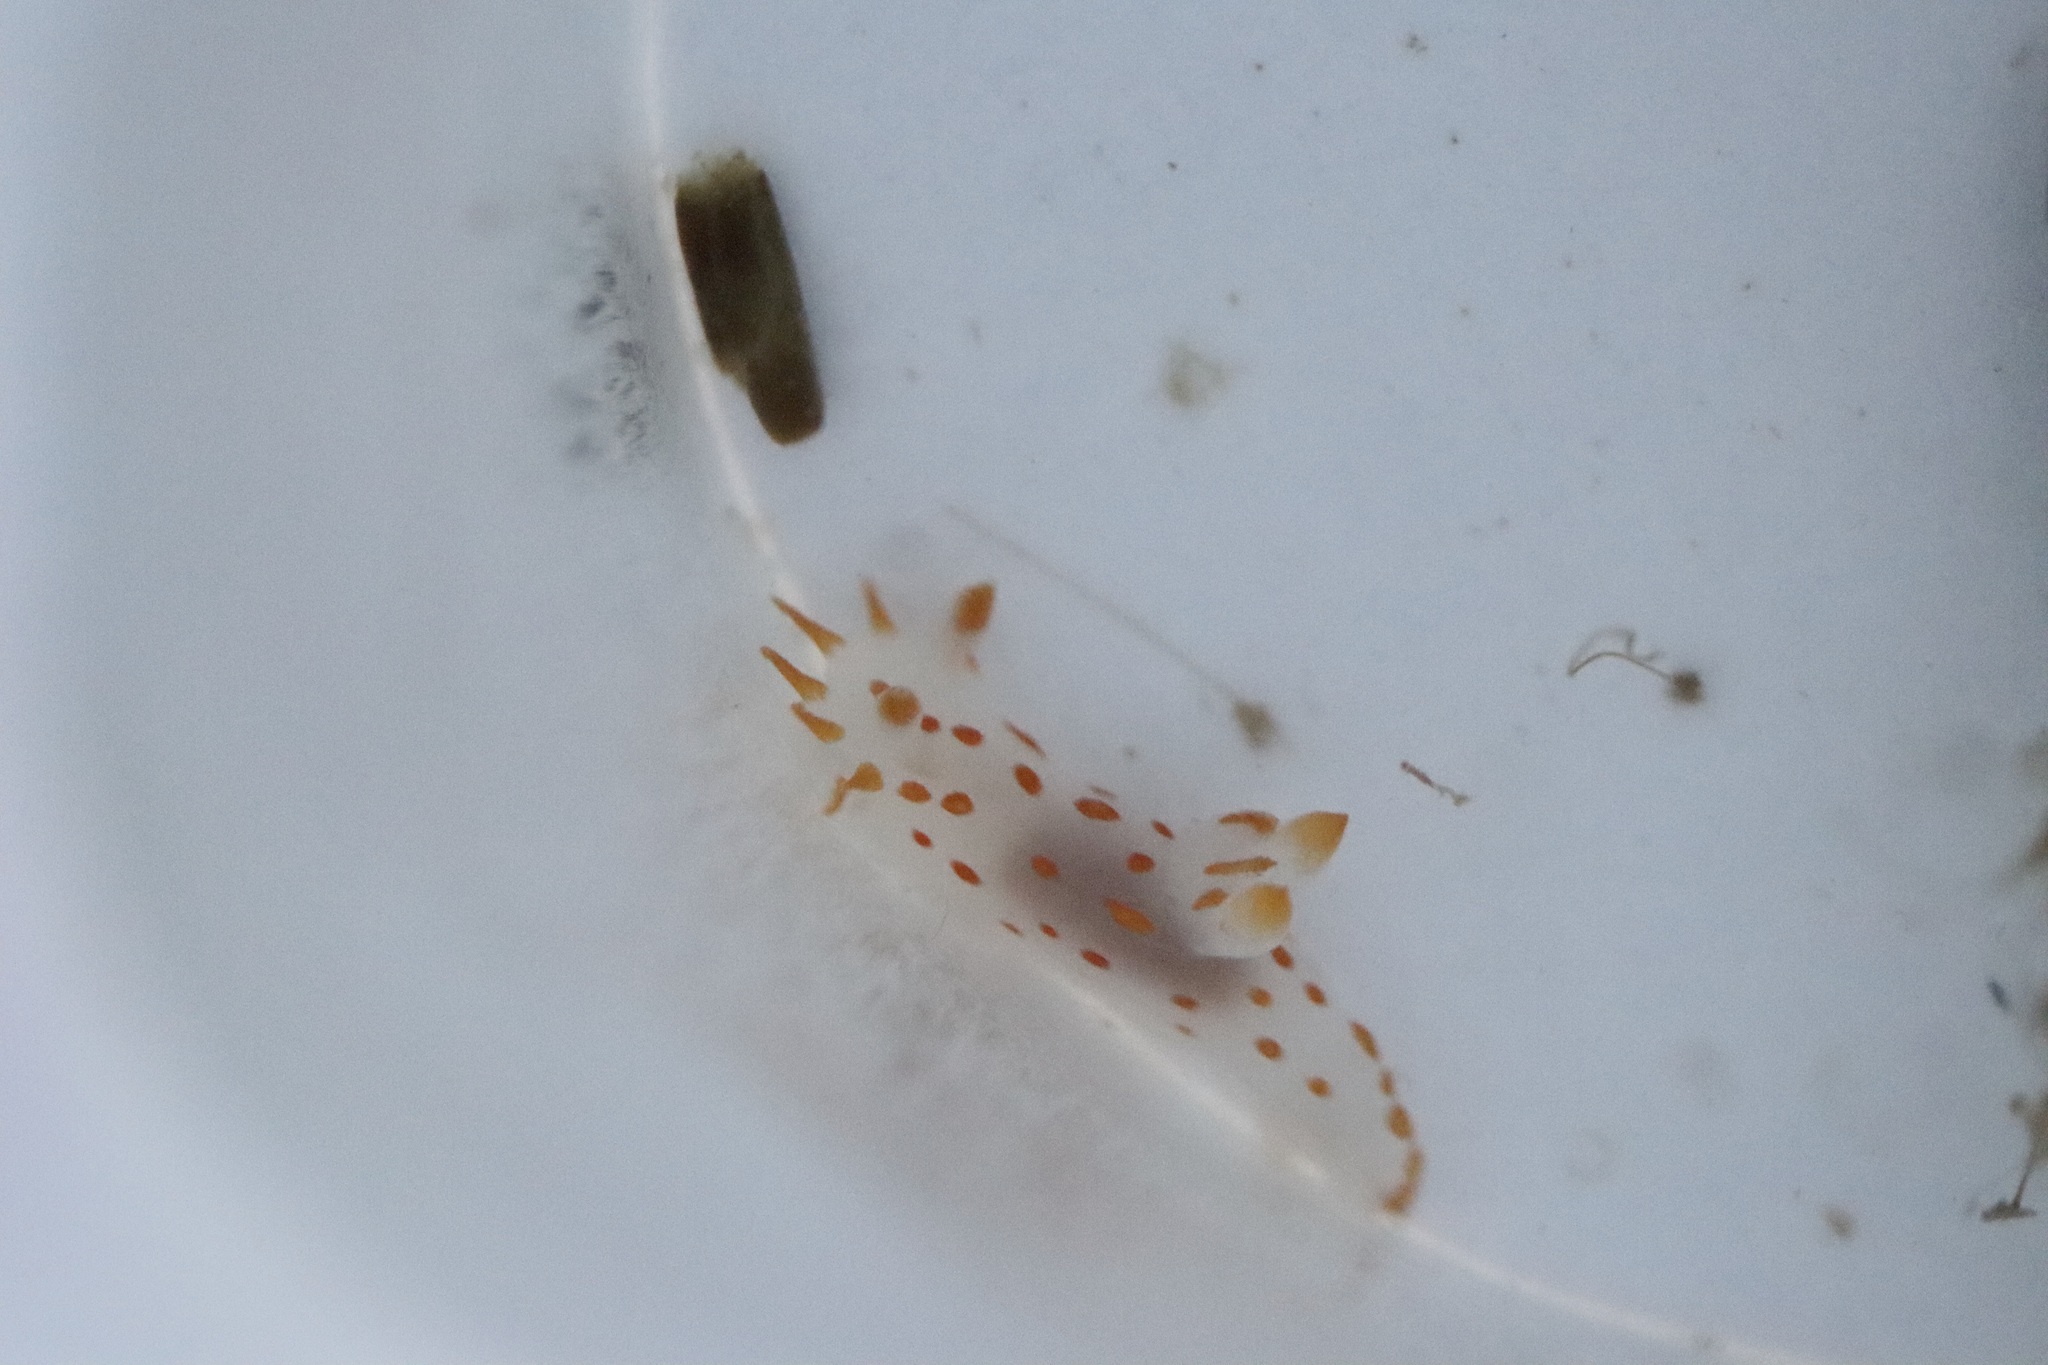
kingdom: Animalia
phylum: Mollusca
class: Gastropoda
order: Nudibranchia
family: Polyceridae
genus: Polycera
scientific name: Polycera
